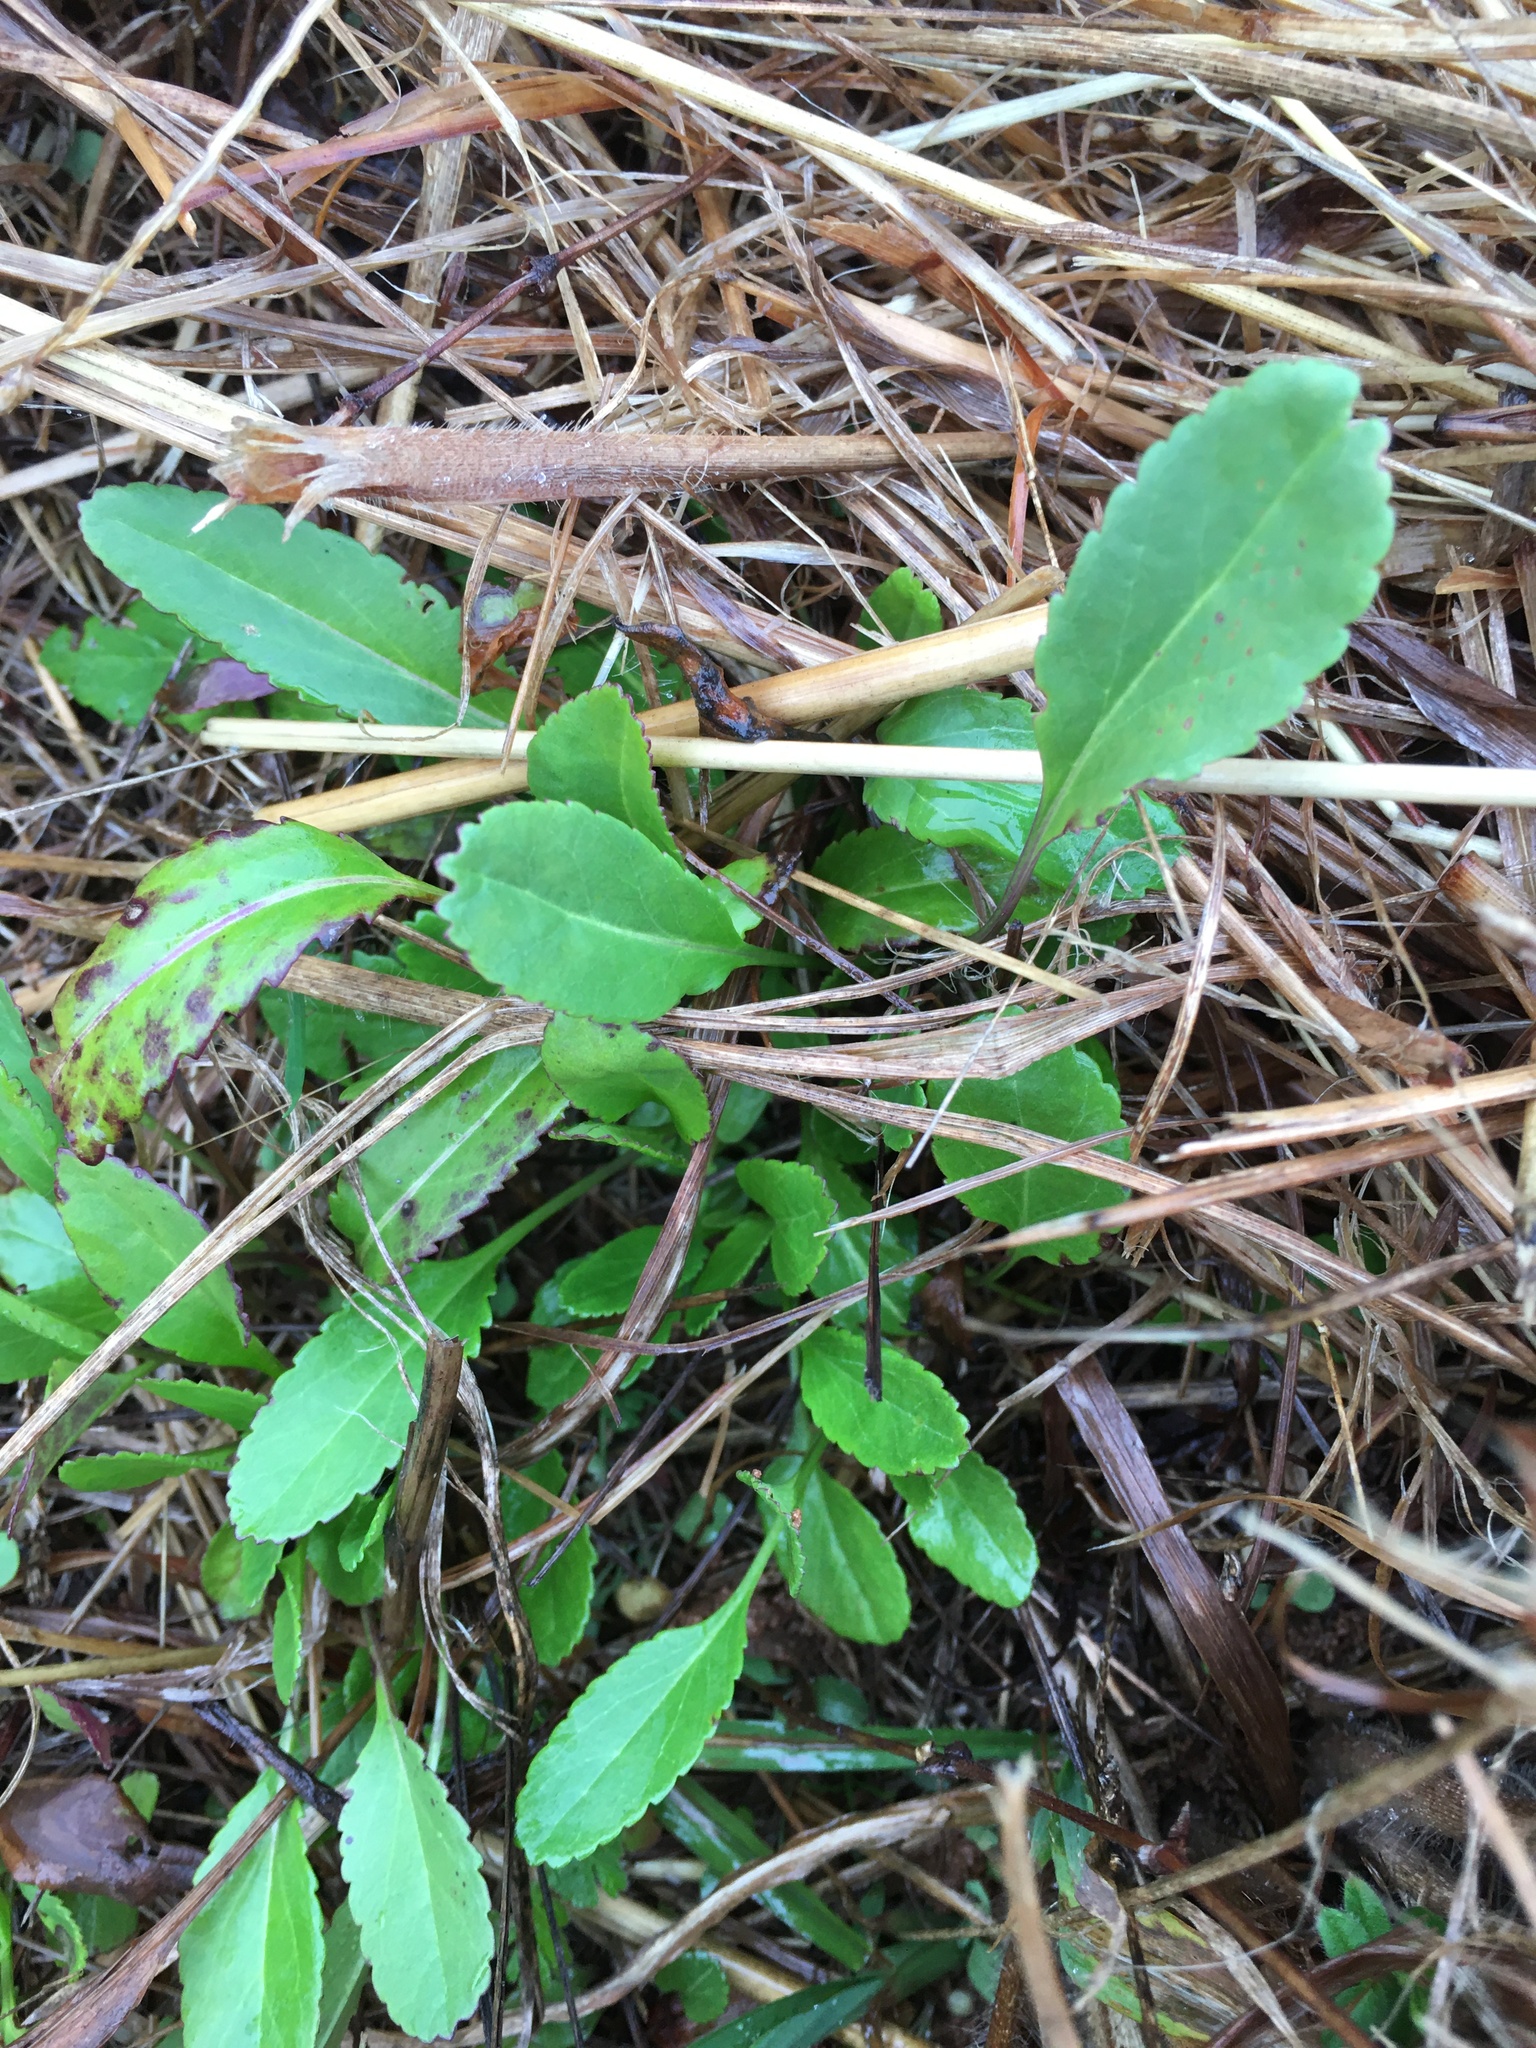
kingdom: Plantae
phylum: Tracheophyta
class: Magnoliopsida
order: Asterales
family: Asteraceae
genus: Packera
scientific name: Packera anonyma
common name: Small ragwort
